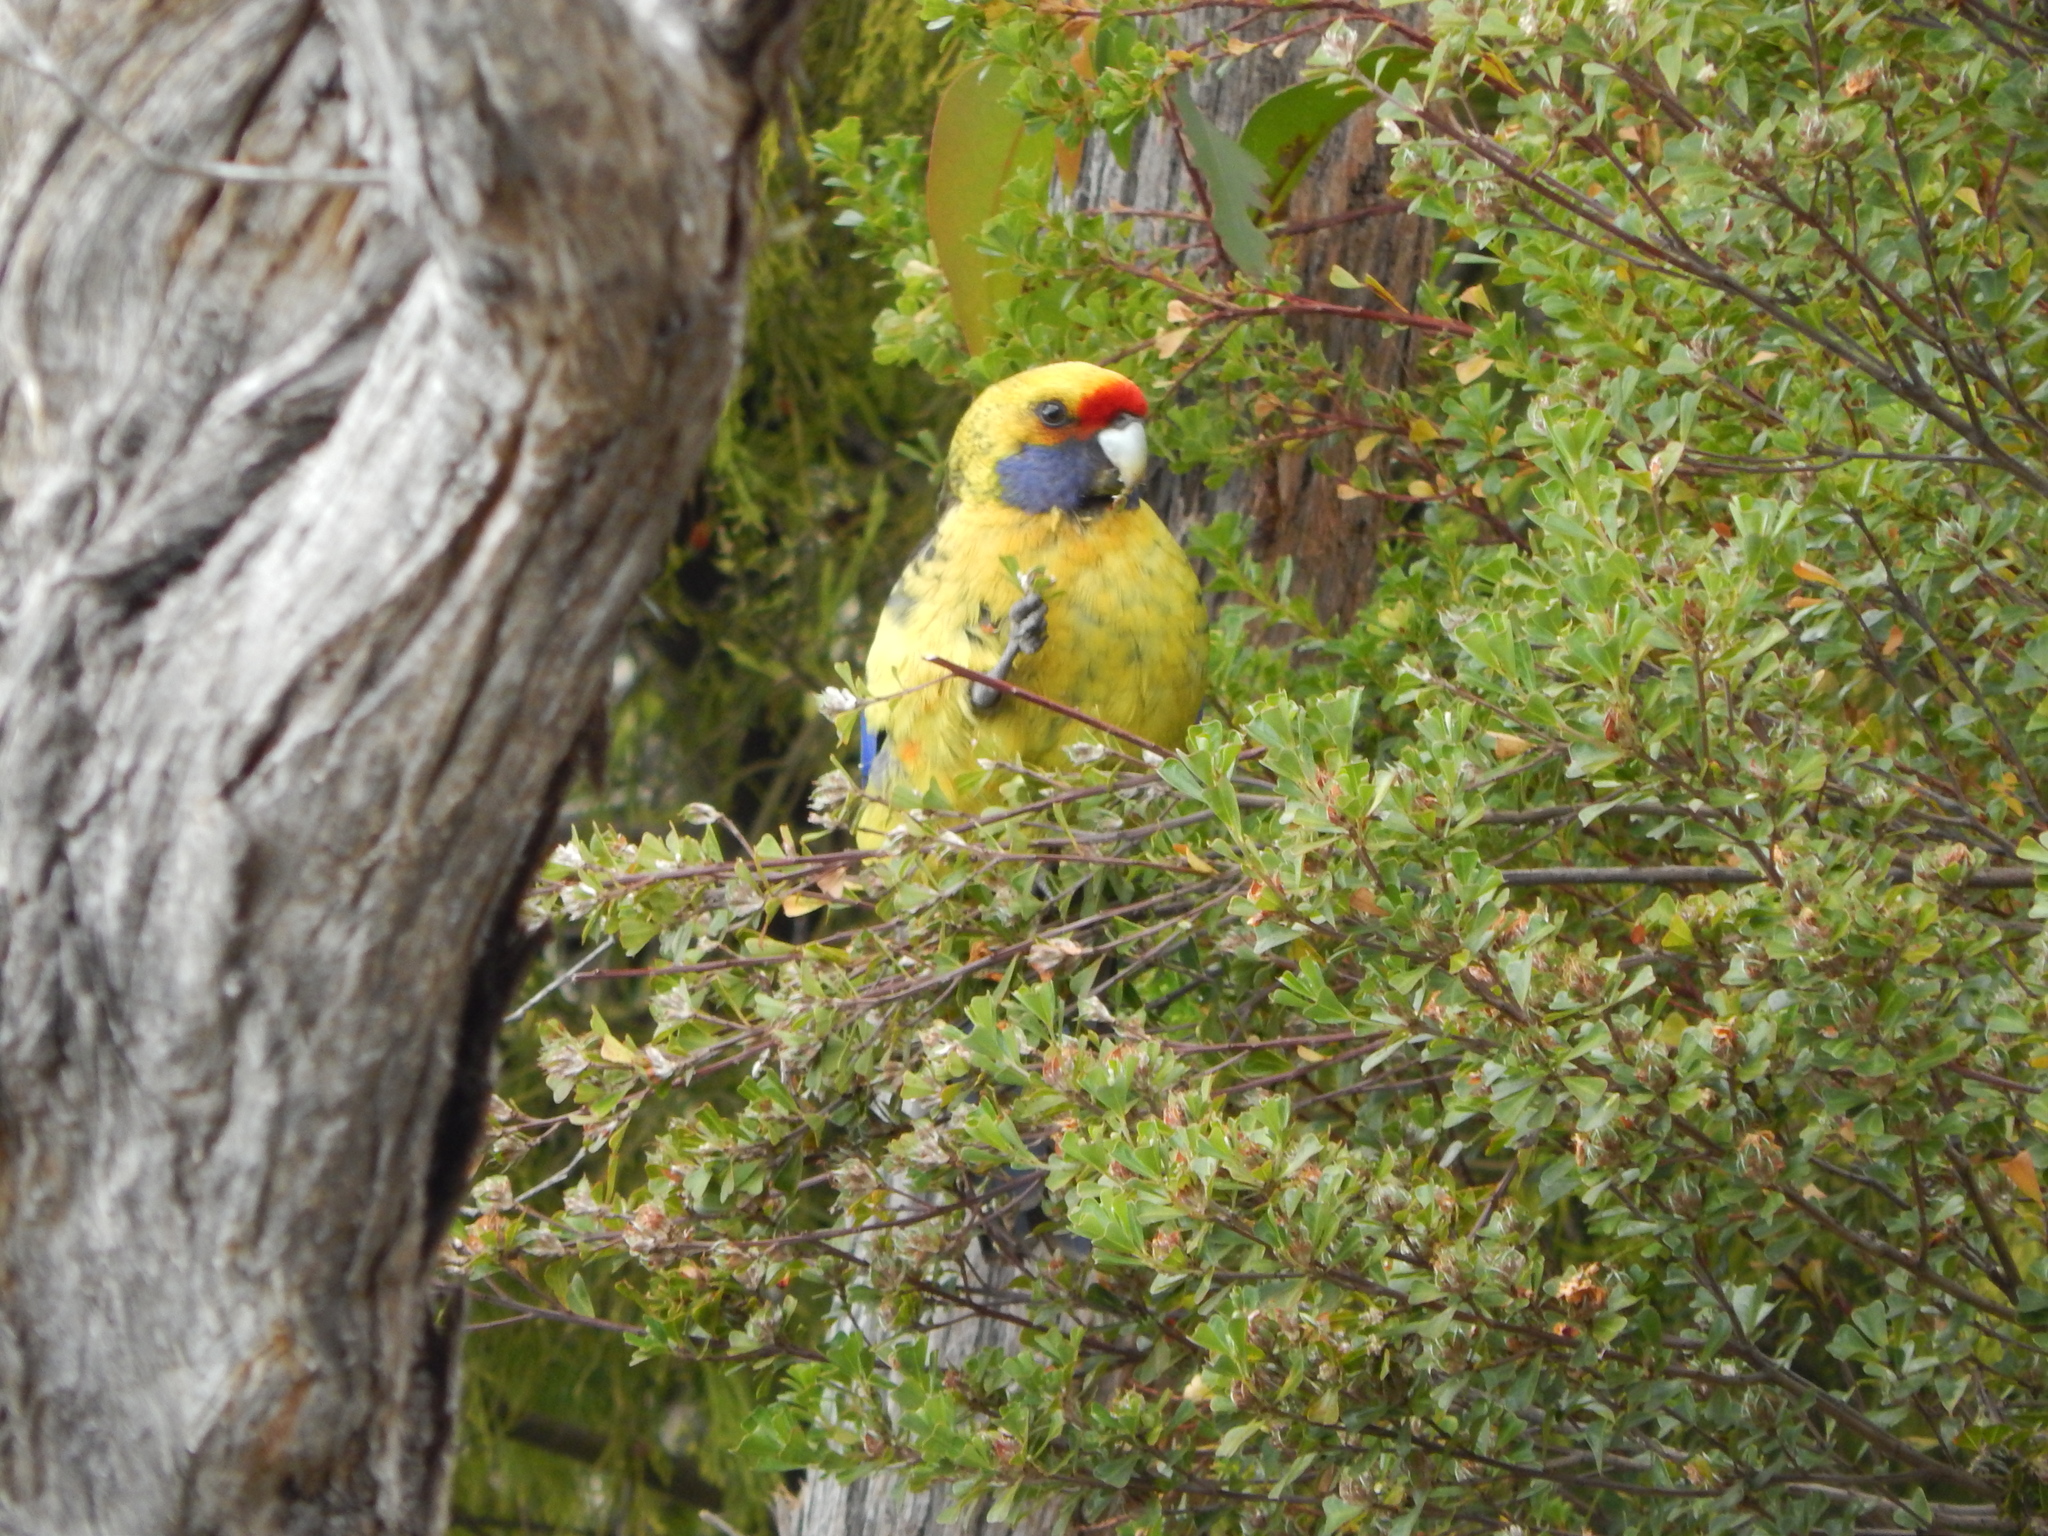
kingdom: Animalia
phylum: Chordata
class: Aves
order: Psittaciformes
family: Psittacidae
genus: Platycercus
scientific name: Platycercus caledonicus
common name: Green rosella
